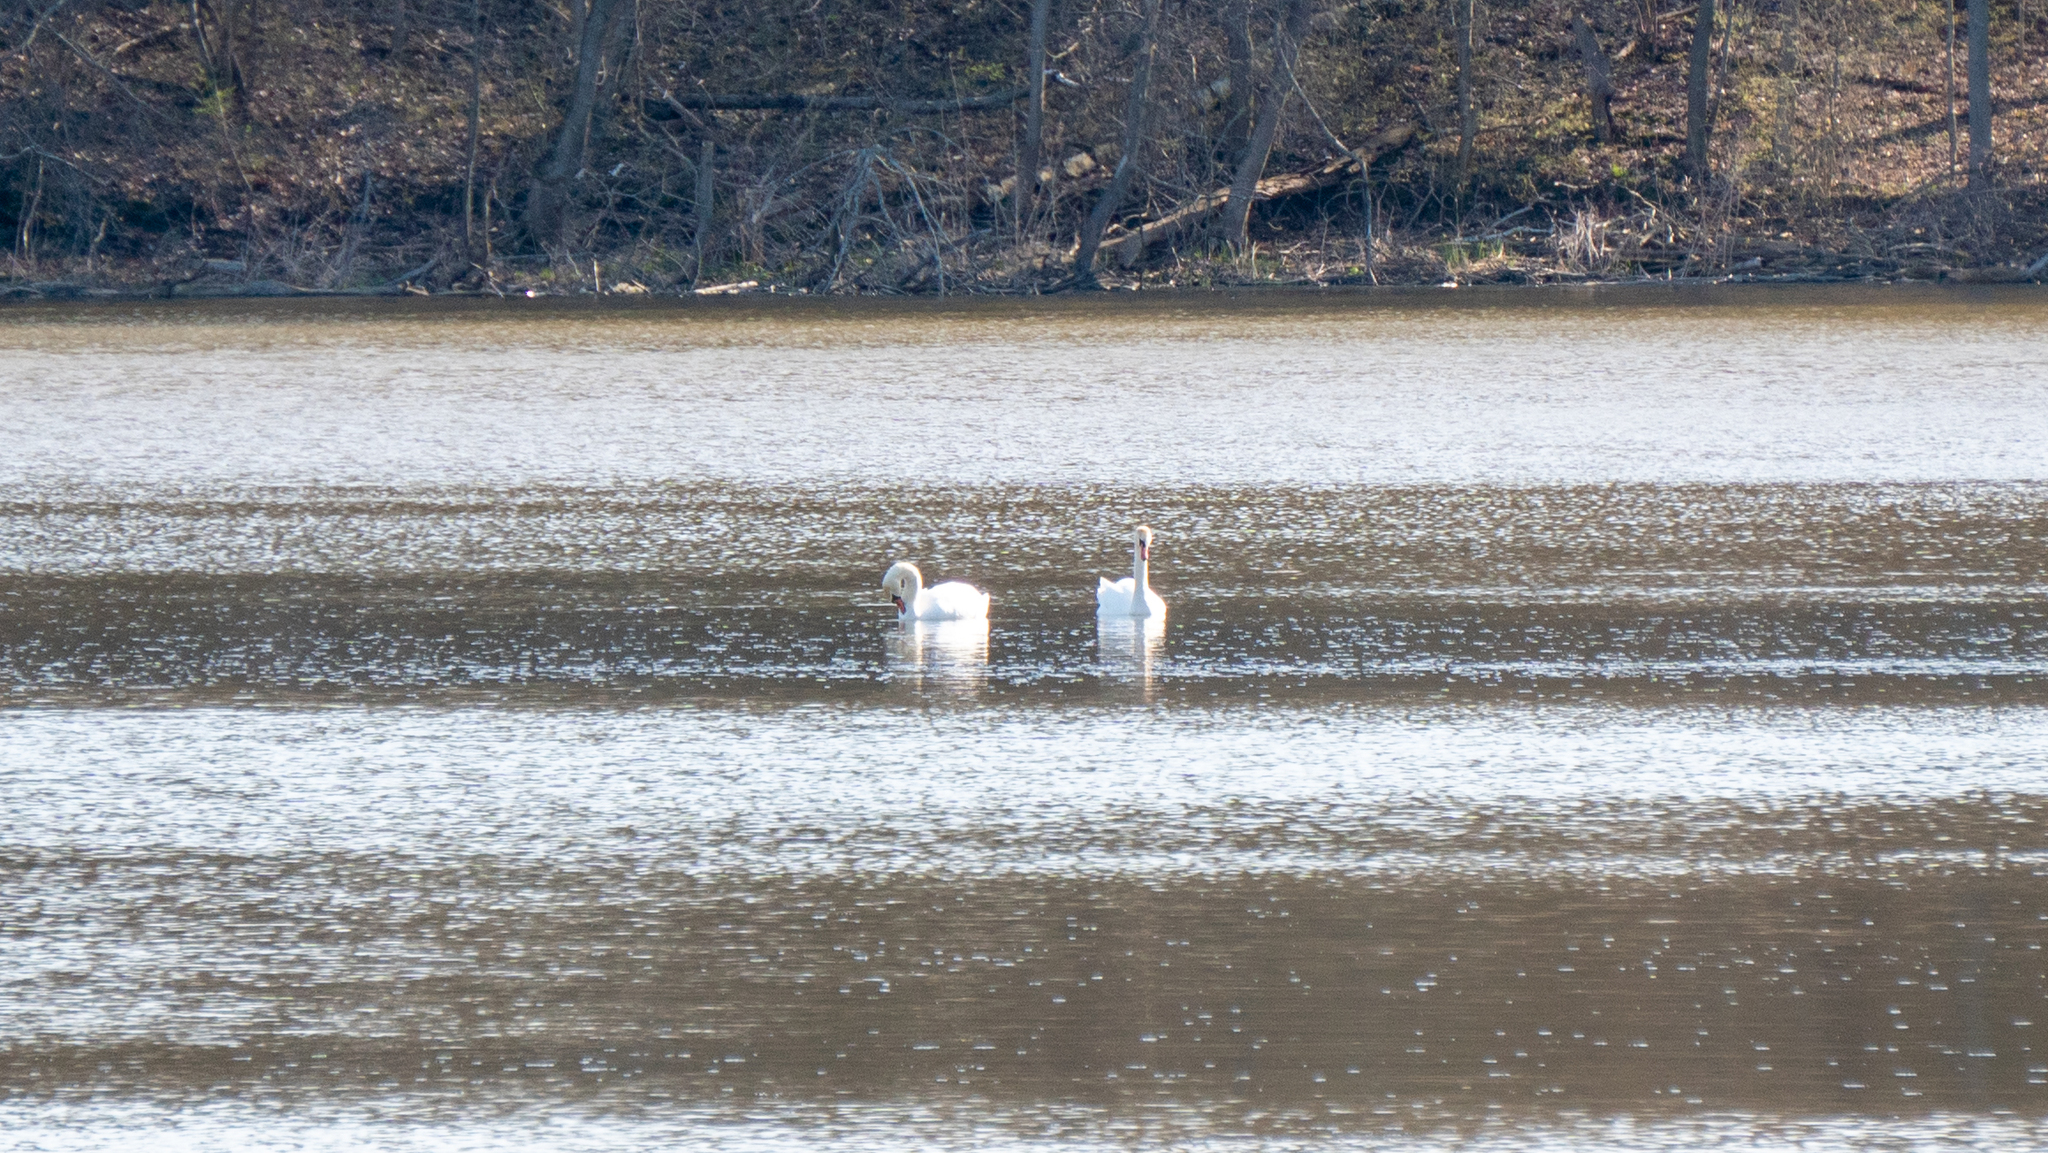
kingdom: Animalia
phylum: Chordata
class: Aves
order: Anseriformes
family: Anatidae
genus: Cygnus
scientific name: Cygnus olor
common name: Mute swan
